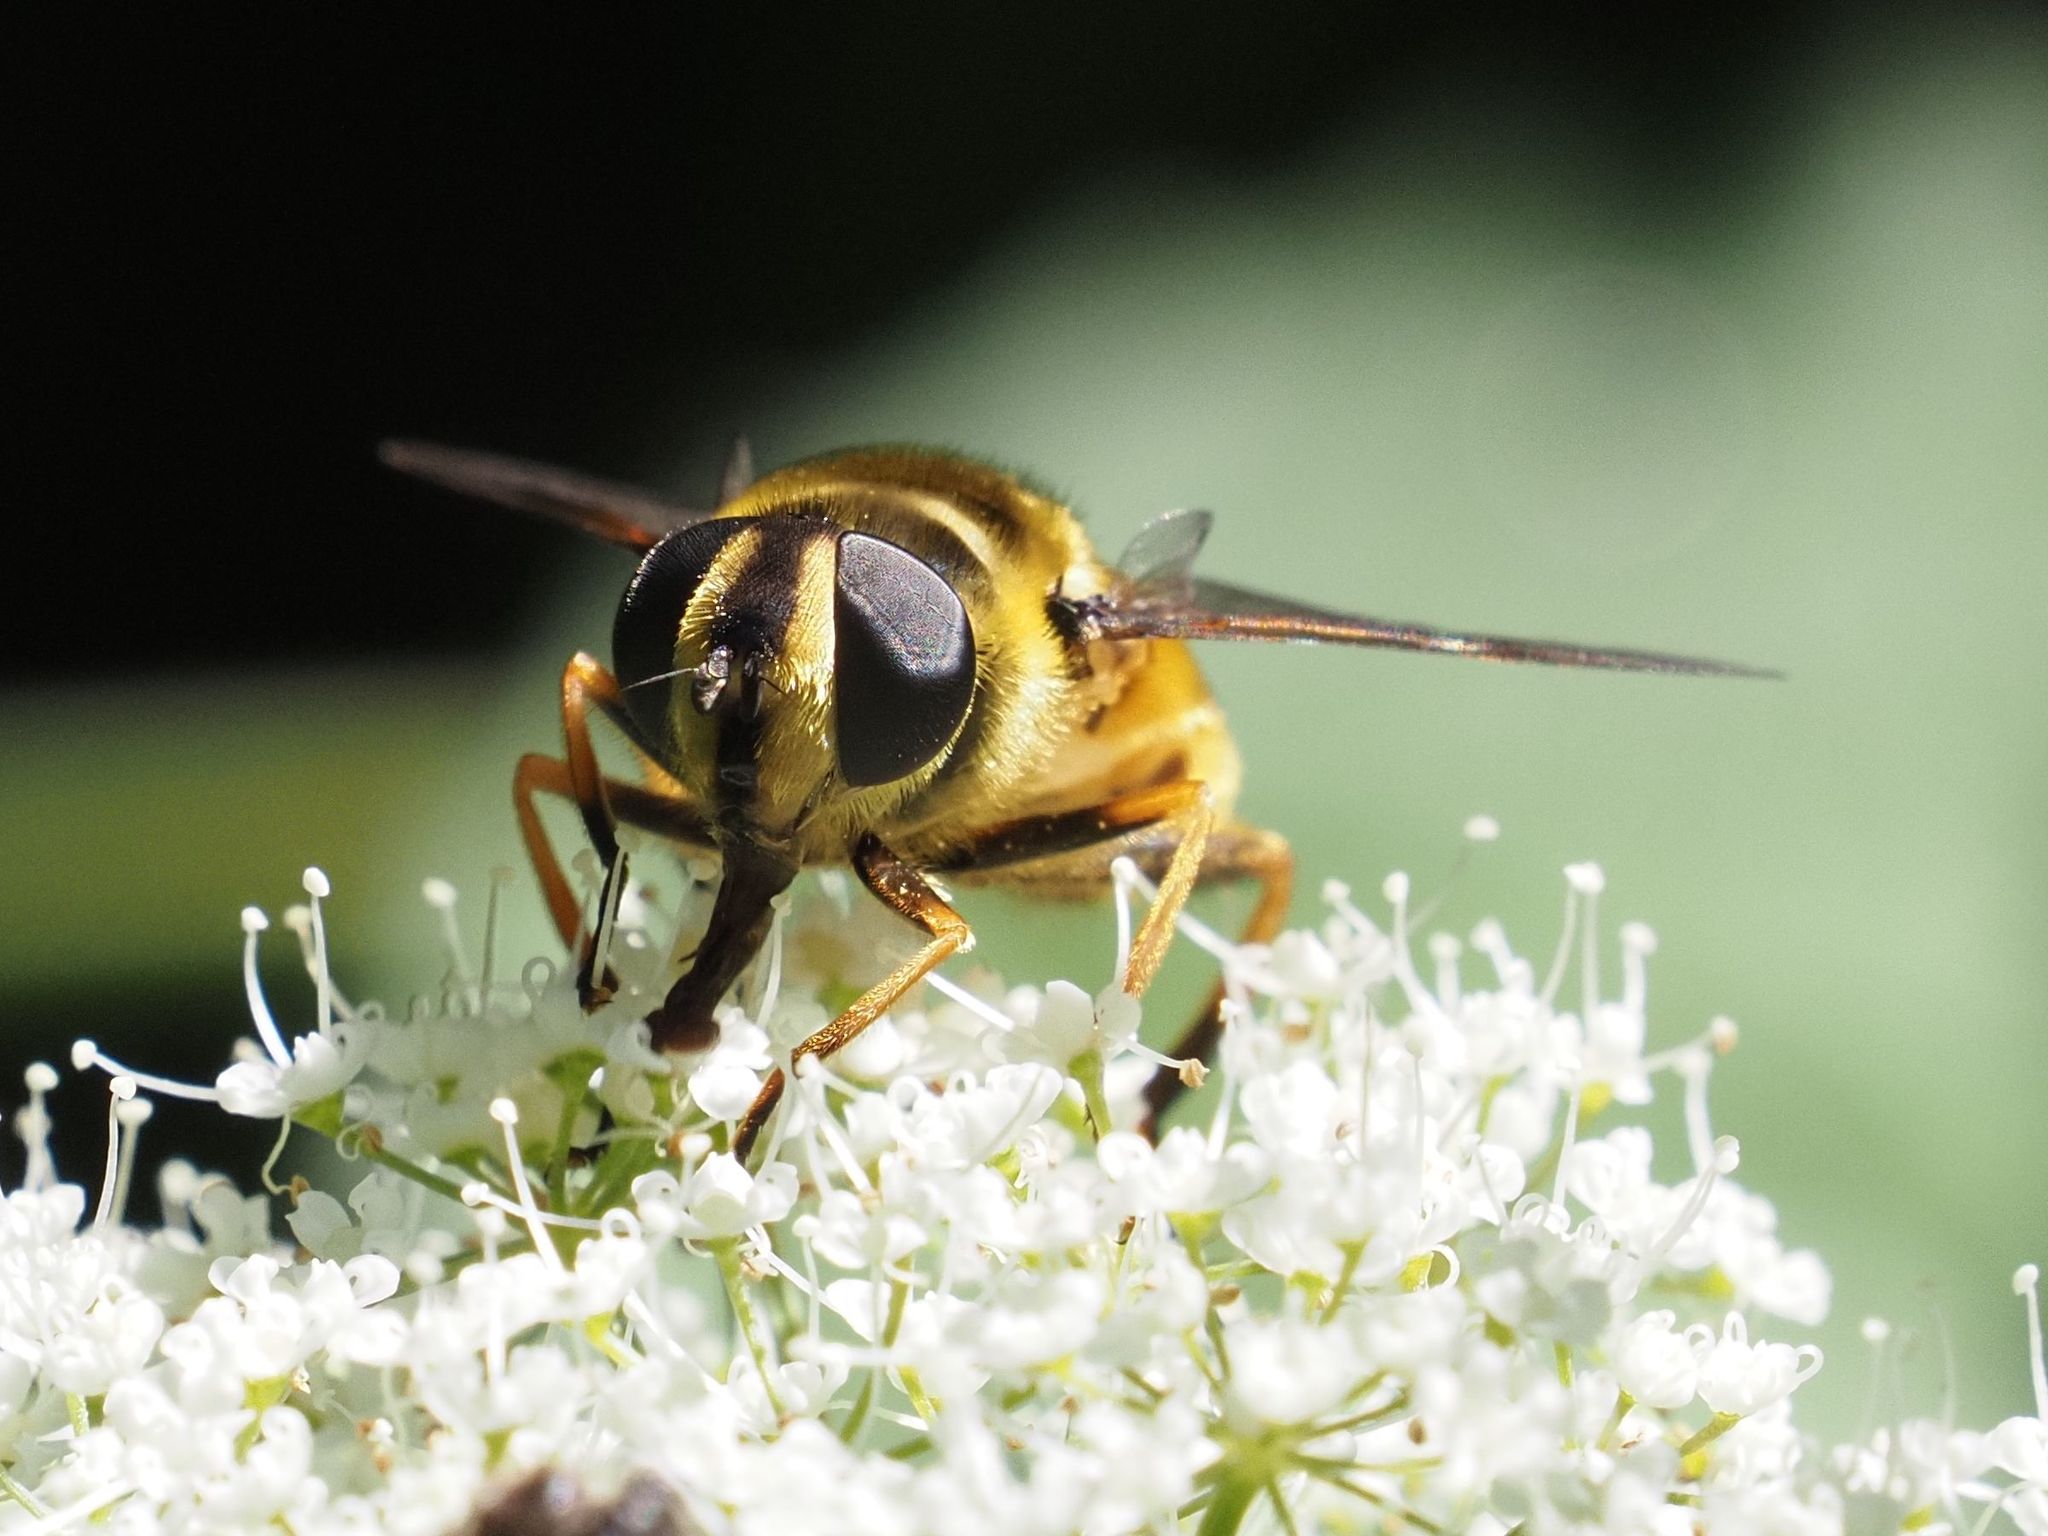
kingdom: Animalia
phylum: Arthropoda
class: Insecta
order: Diptera
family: Syrphidae
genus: Myathropa
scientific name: Myathropa florea
